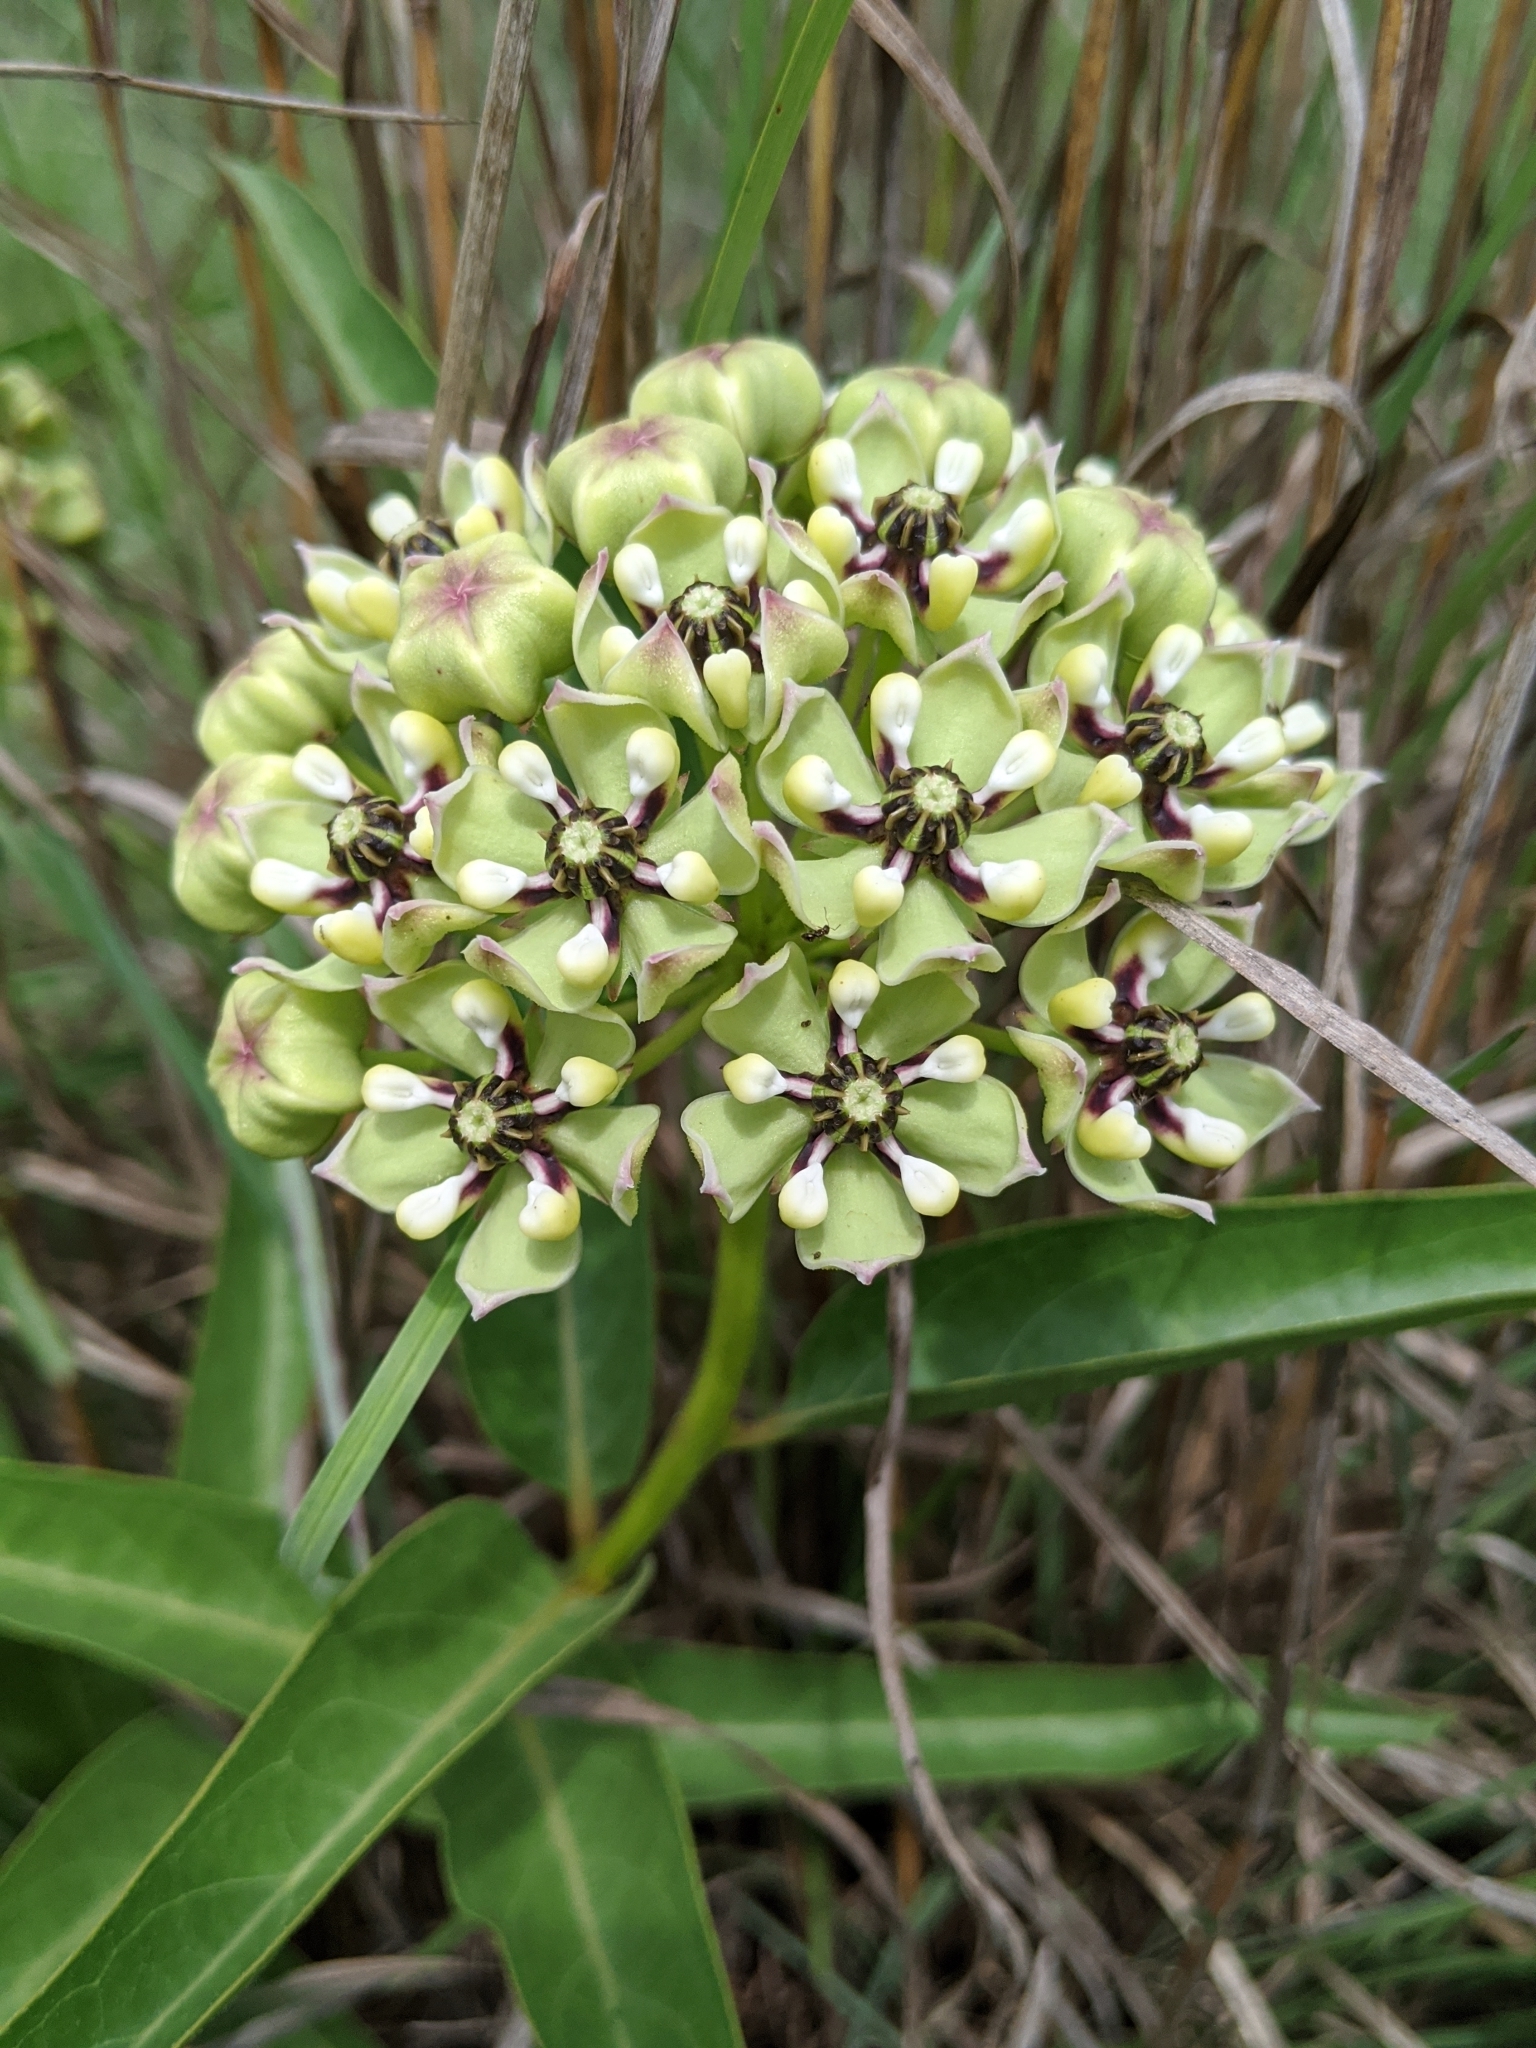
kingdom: Plantae
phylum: Tracheophyta
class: Magnoliopsida
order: Gentianales
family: Apocynaceae
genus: Asclepias
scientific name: Asclepias asperula
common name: Antelope horns
